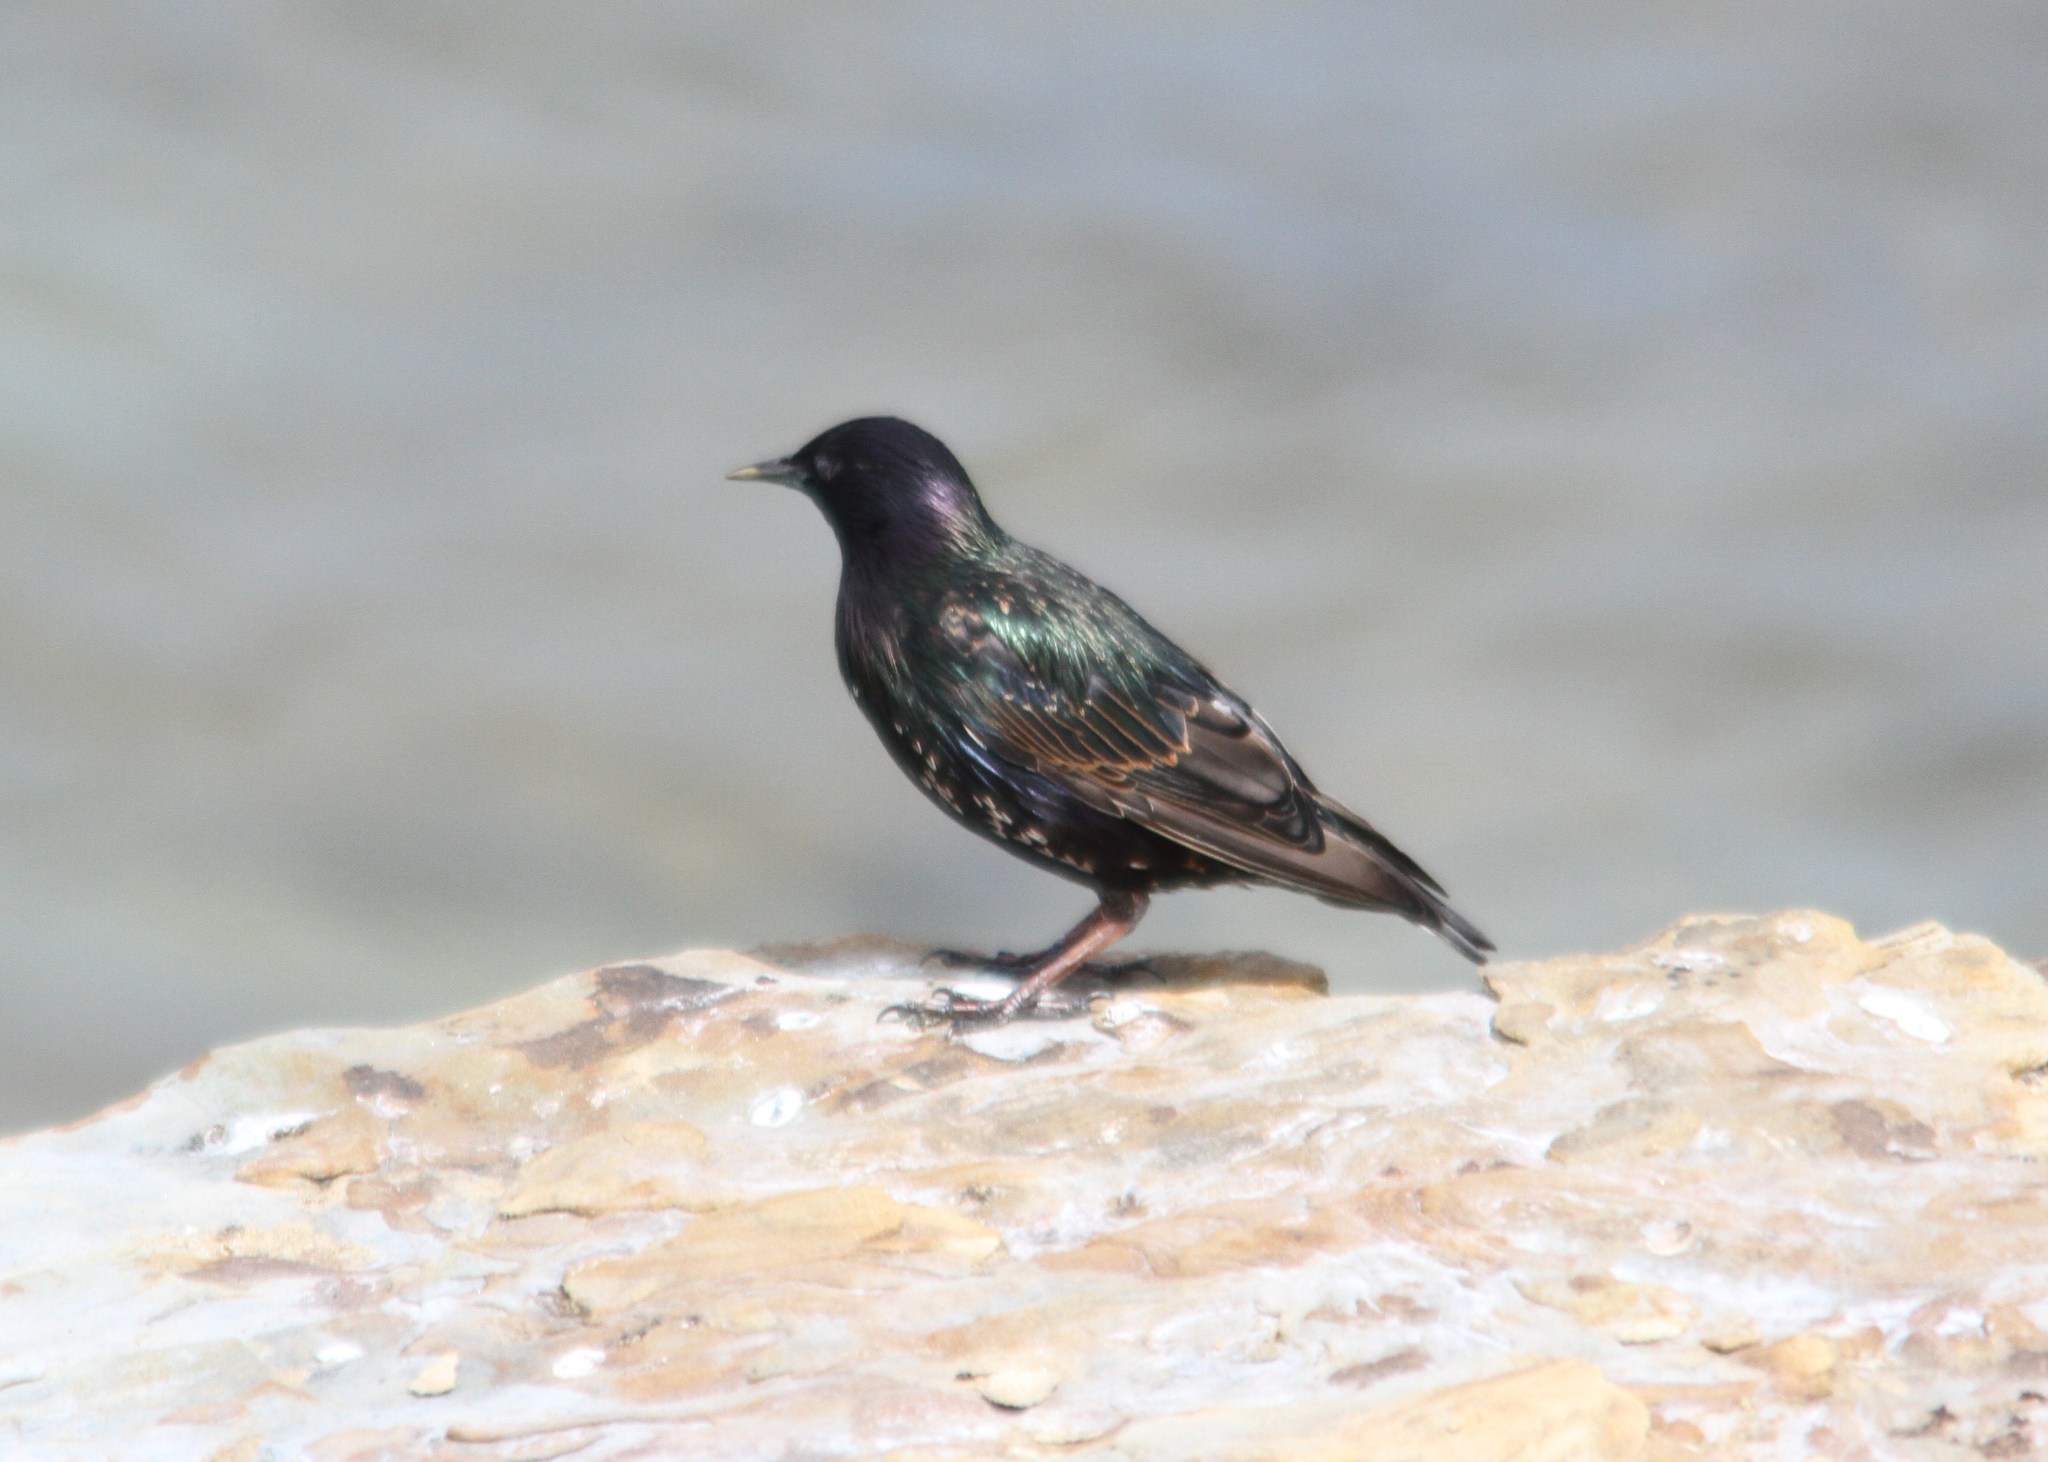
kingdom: Animalia
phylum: Chordata
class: Aves
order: Passeriformes
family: Sturnidae
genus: Sturnus
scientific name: Sturnus vulgaris
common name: Common starling
